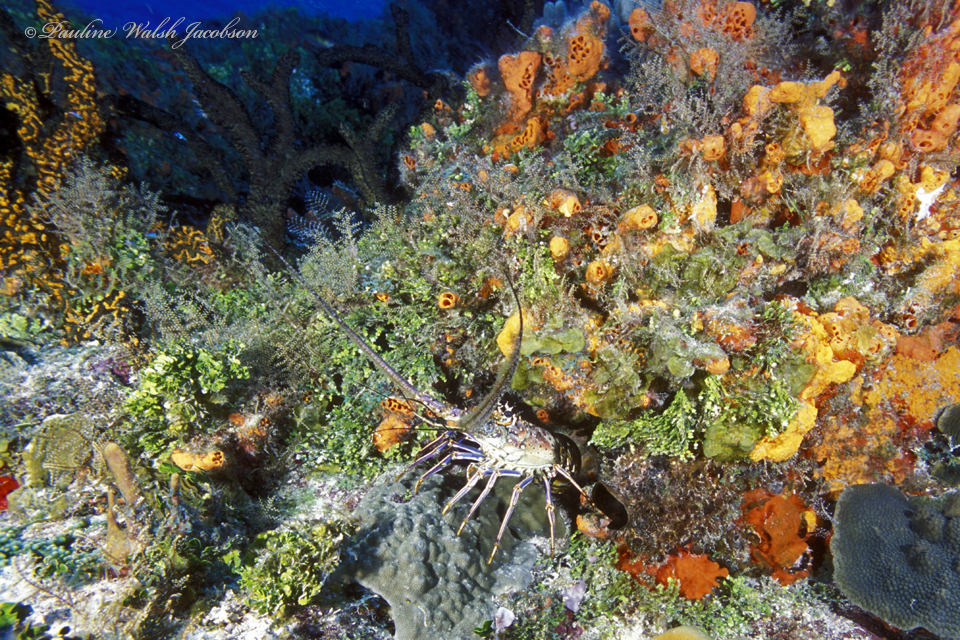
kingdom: Animalia
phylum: Arthropoda
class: Malacostraca
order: Decapoda
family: Palinuridae
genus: Panulirus
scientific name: Panulirus argus
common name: Caribbean spiny lobster
